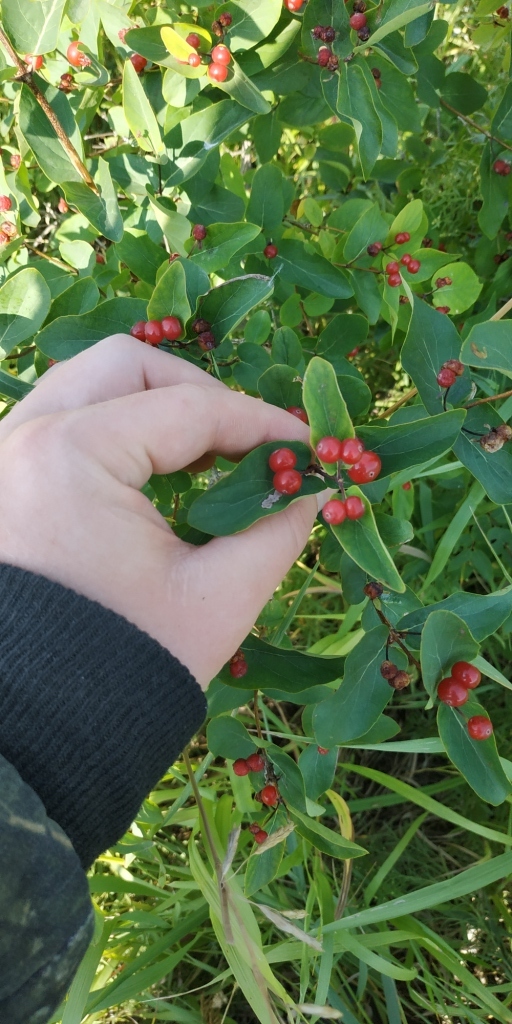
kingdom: Plantae
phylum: Tracheophyta
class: Magnoliopsida
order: Dipsacales
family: Caprifoliaceae
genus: Lonicera
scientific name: Lonicera tatarica
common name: Tatarian honeysuckle
